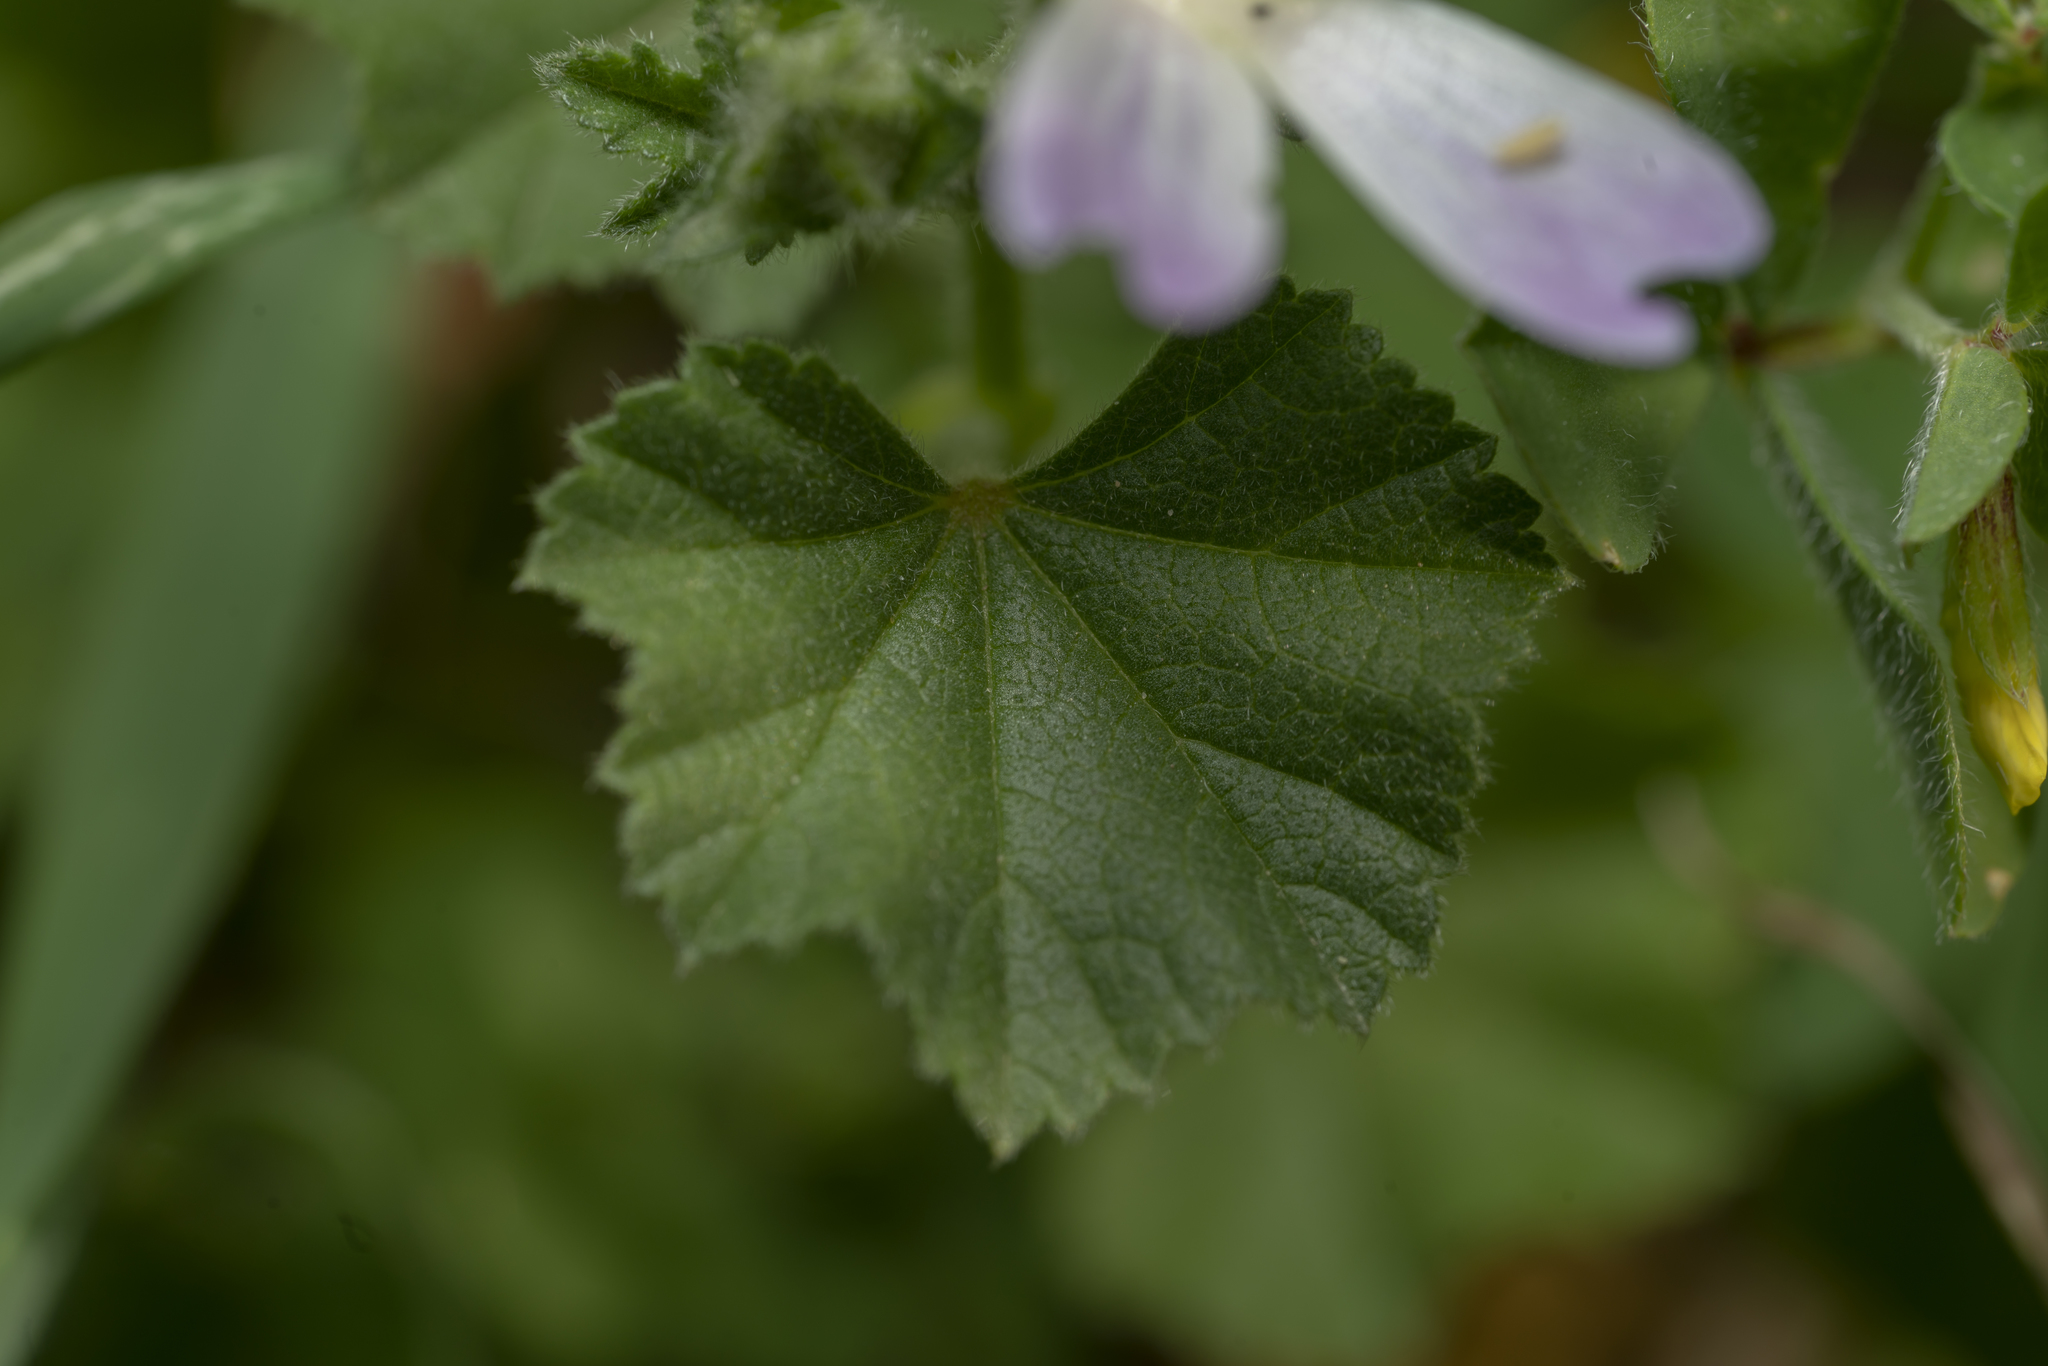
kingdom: Plantae
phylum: Tracheophyta
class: Magnoliopsida
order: Malvales
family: Malvaceae
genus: Malva
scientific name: Malva multiflora
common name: Cheeseweed
